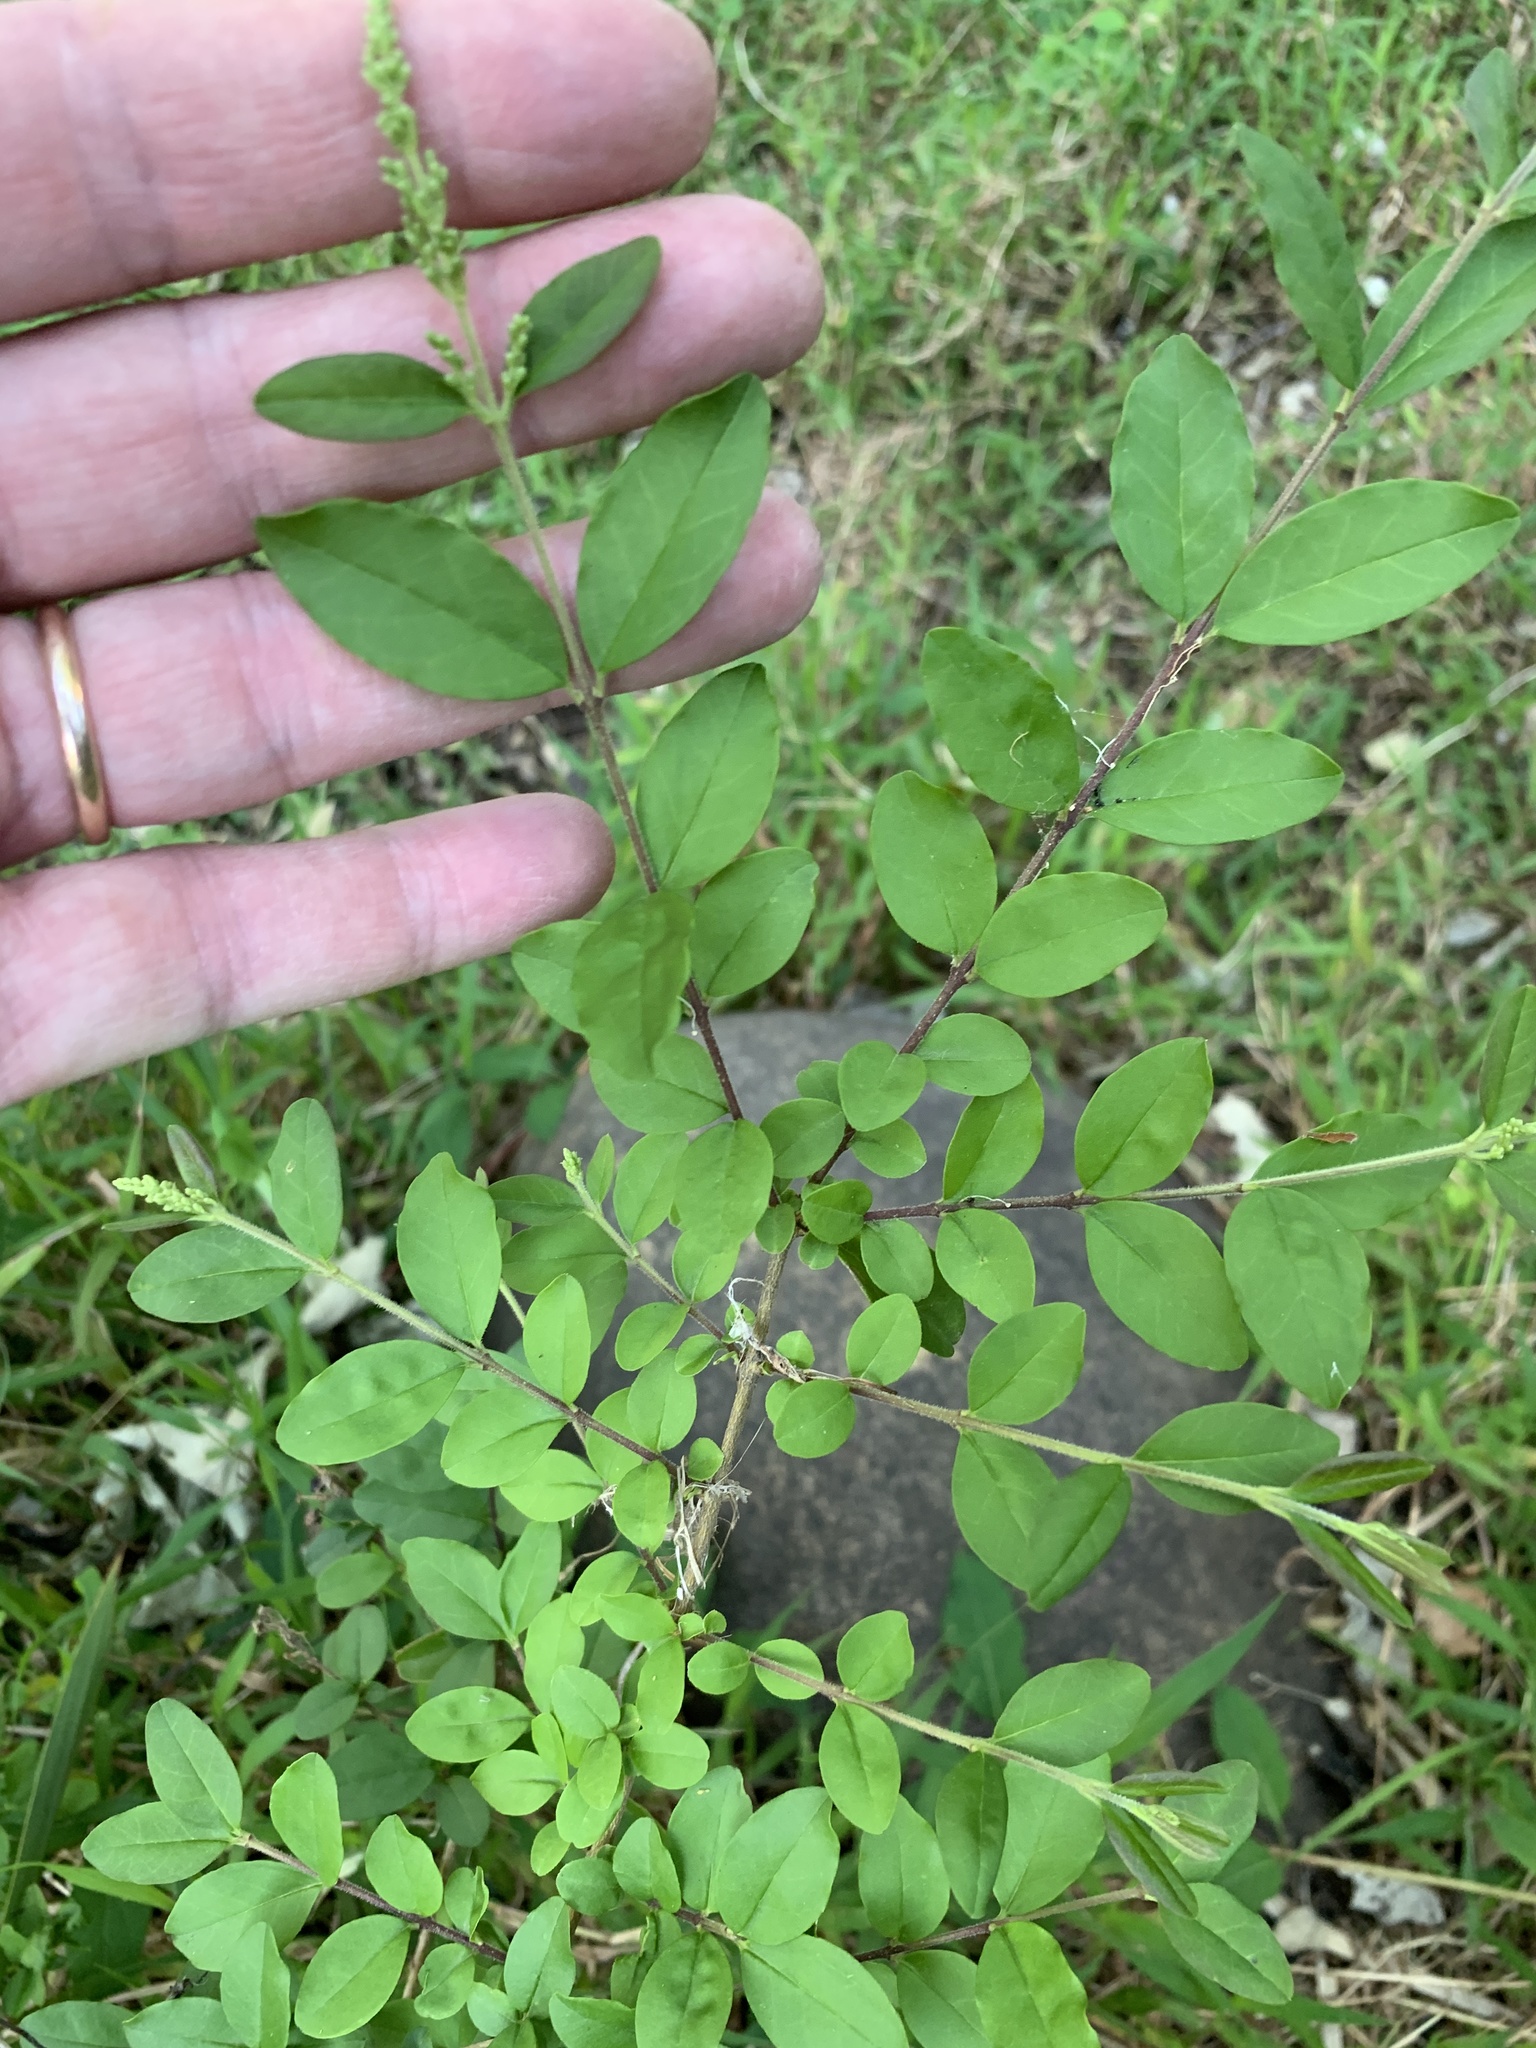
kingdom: Plantae
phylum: Tracheophyta
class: Magnoliopsida
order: Lamiales
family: Oleaceae
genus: Ligustrum
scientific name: Ligustrum sinense
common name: Chinese privet
